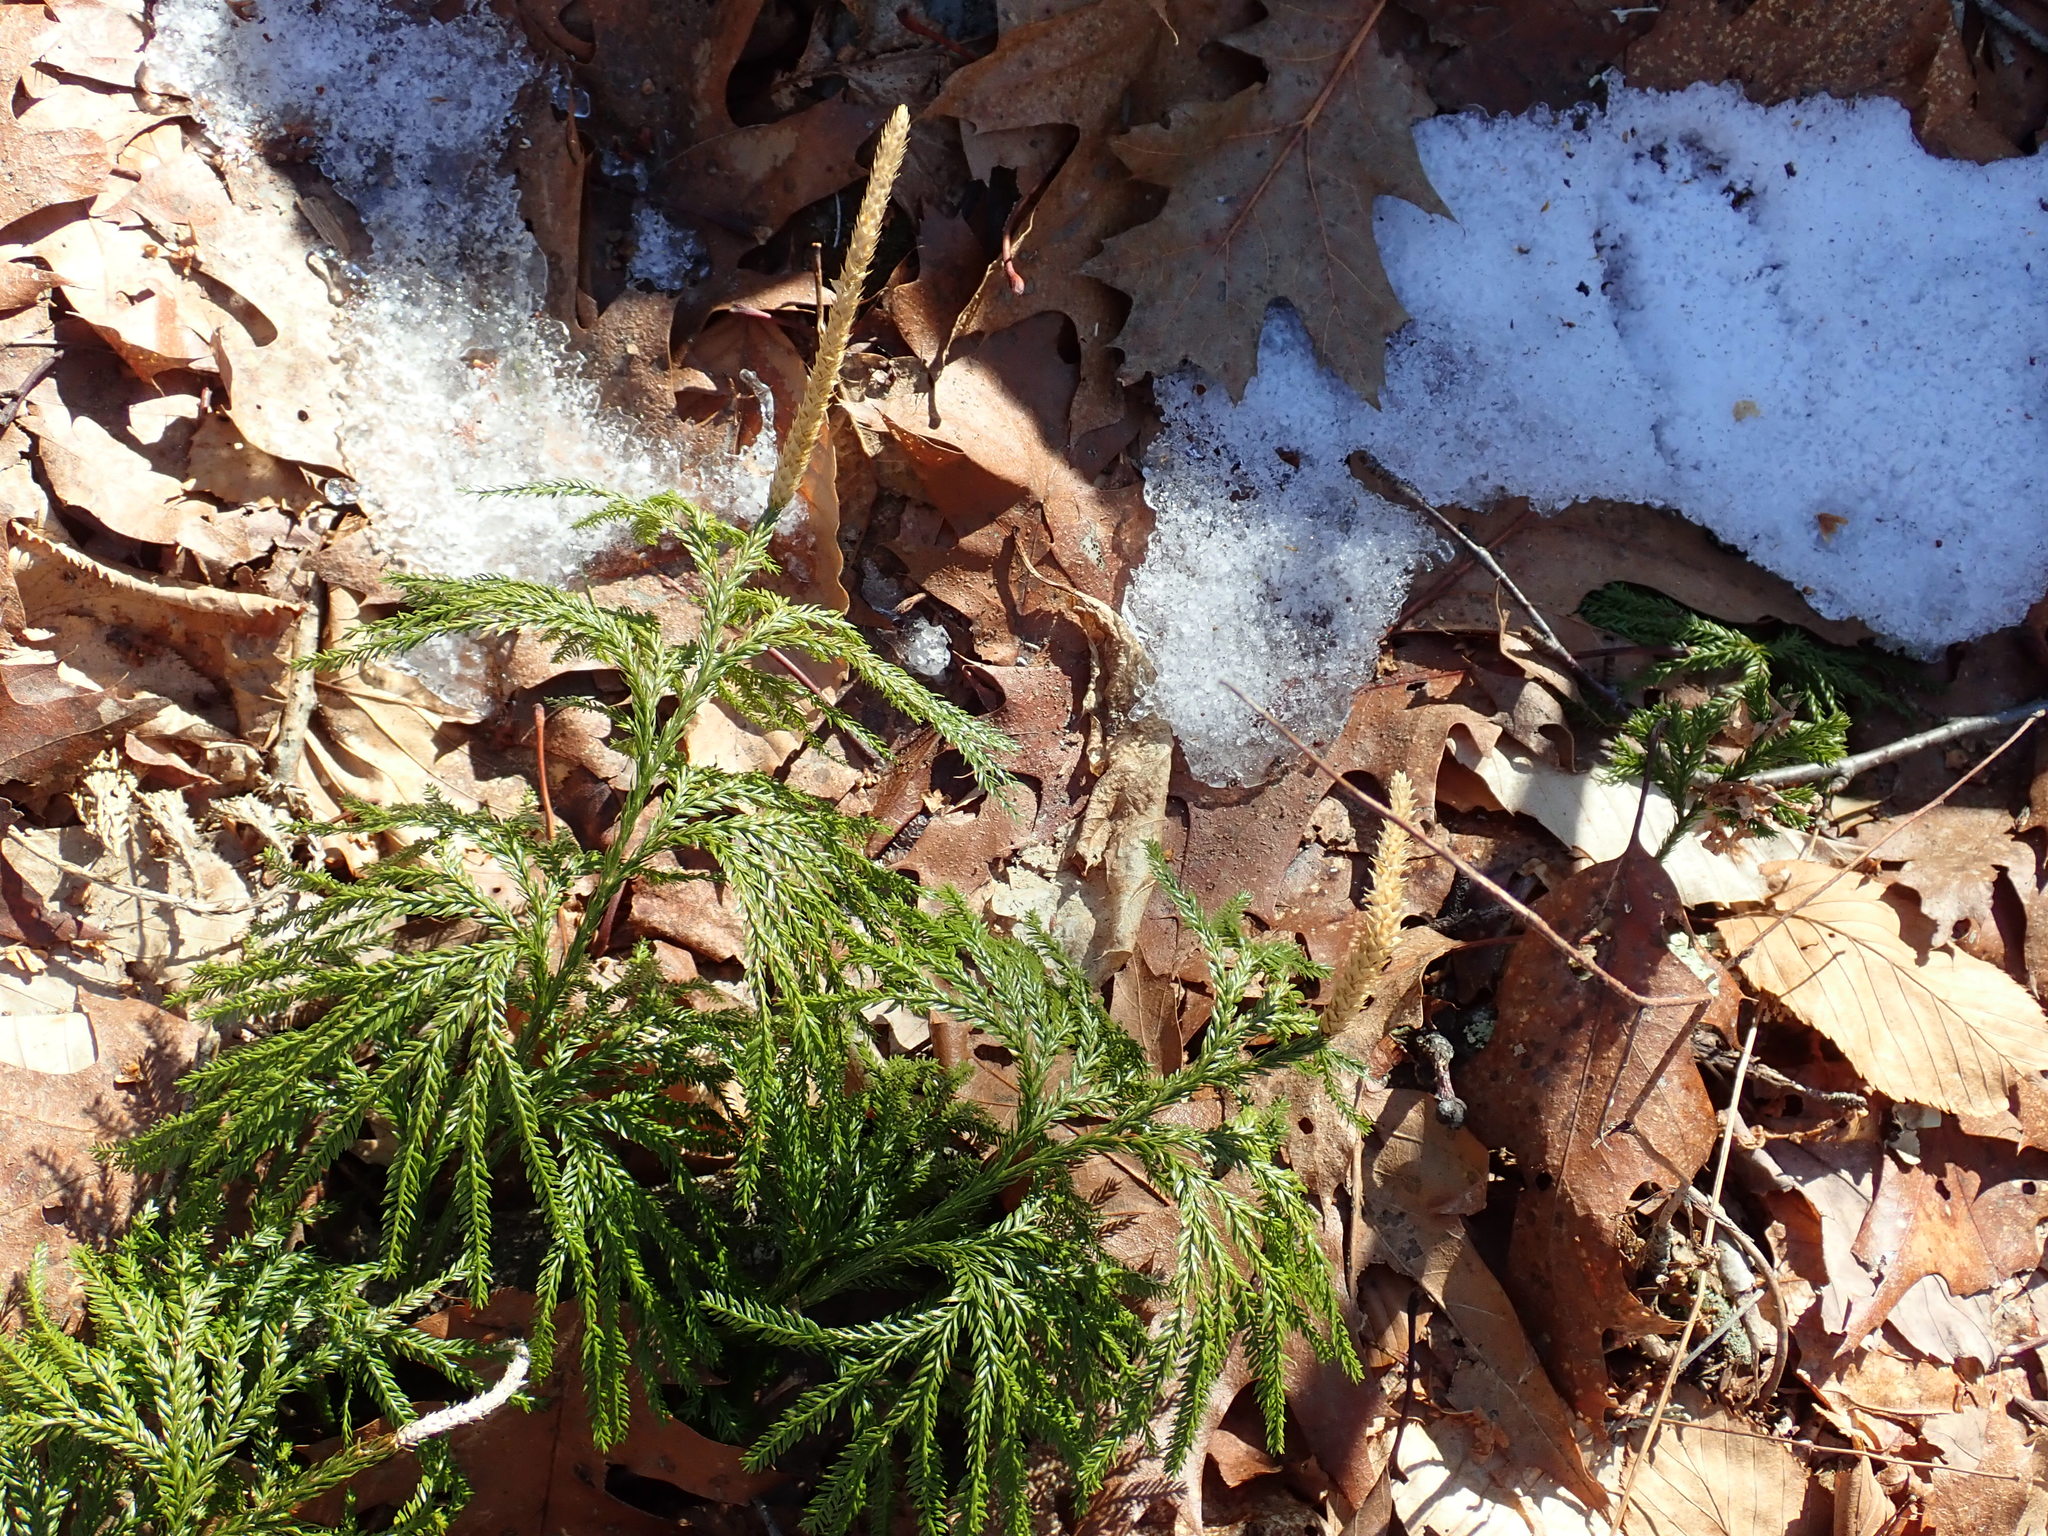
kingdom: Plantae
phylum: Tracheophyta
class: Lycopodiopsida
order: Lycopodiales
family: Lycopodiaceae
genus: Dendrolycopodium
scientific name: Dendrolycopodium obscurum
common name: Common ground-pine
